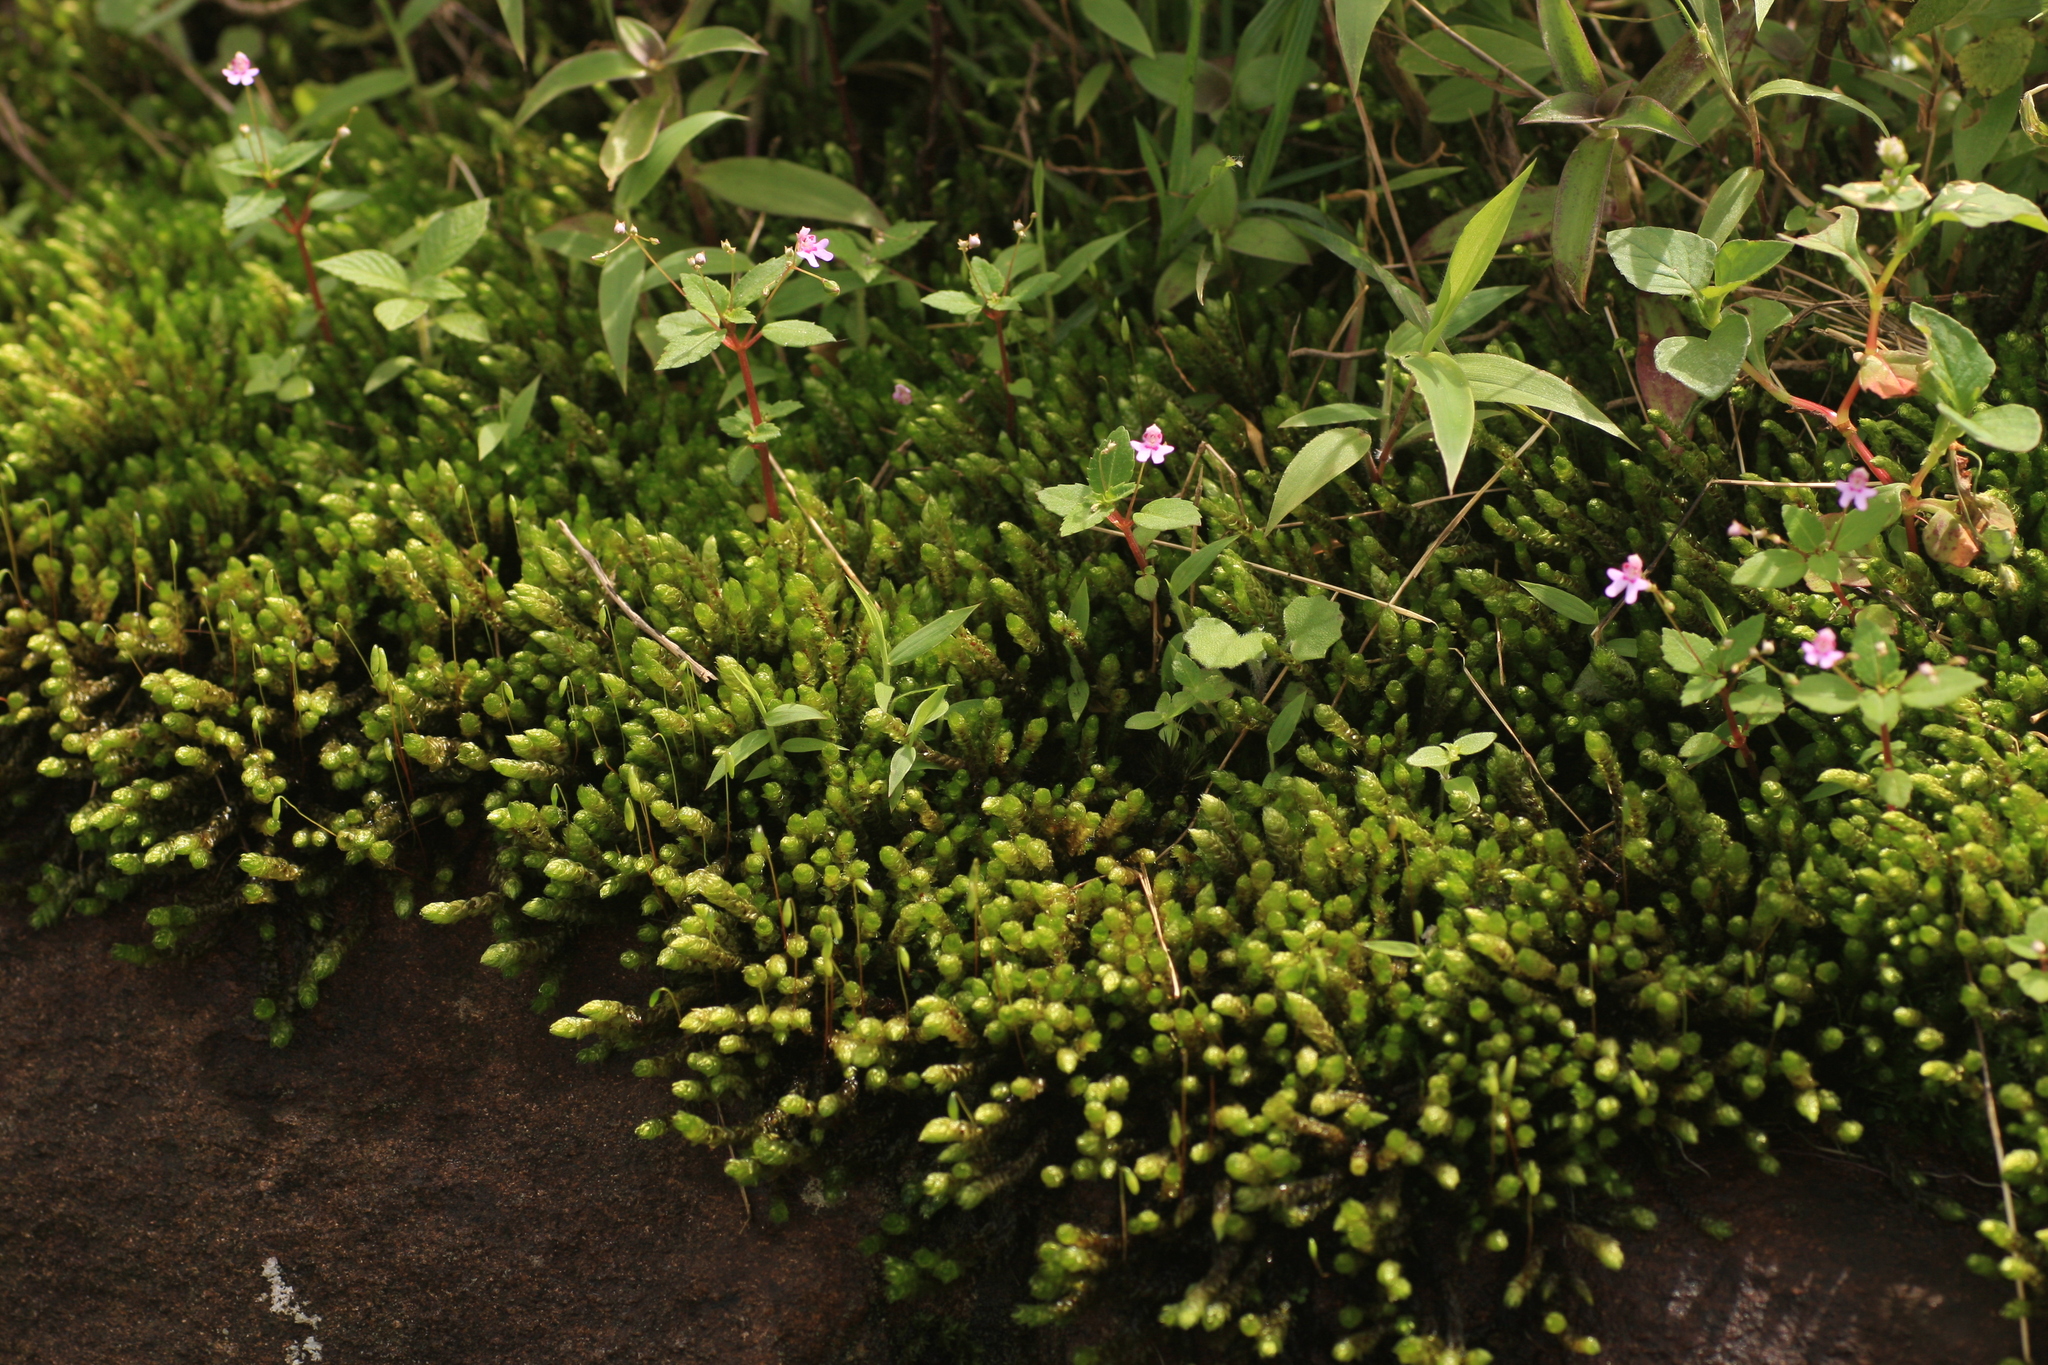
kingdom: Plantae
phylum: Tracheophyta
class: Magnoliopsida
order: Ericales
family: Balsaminaceae
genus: Impatiens
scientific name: Impatiens goughii
